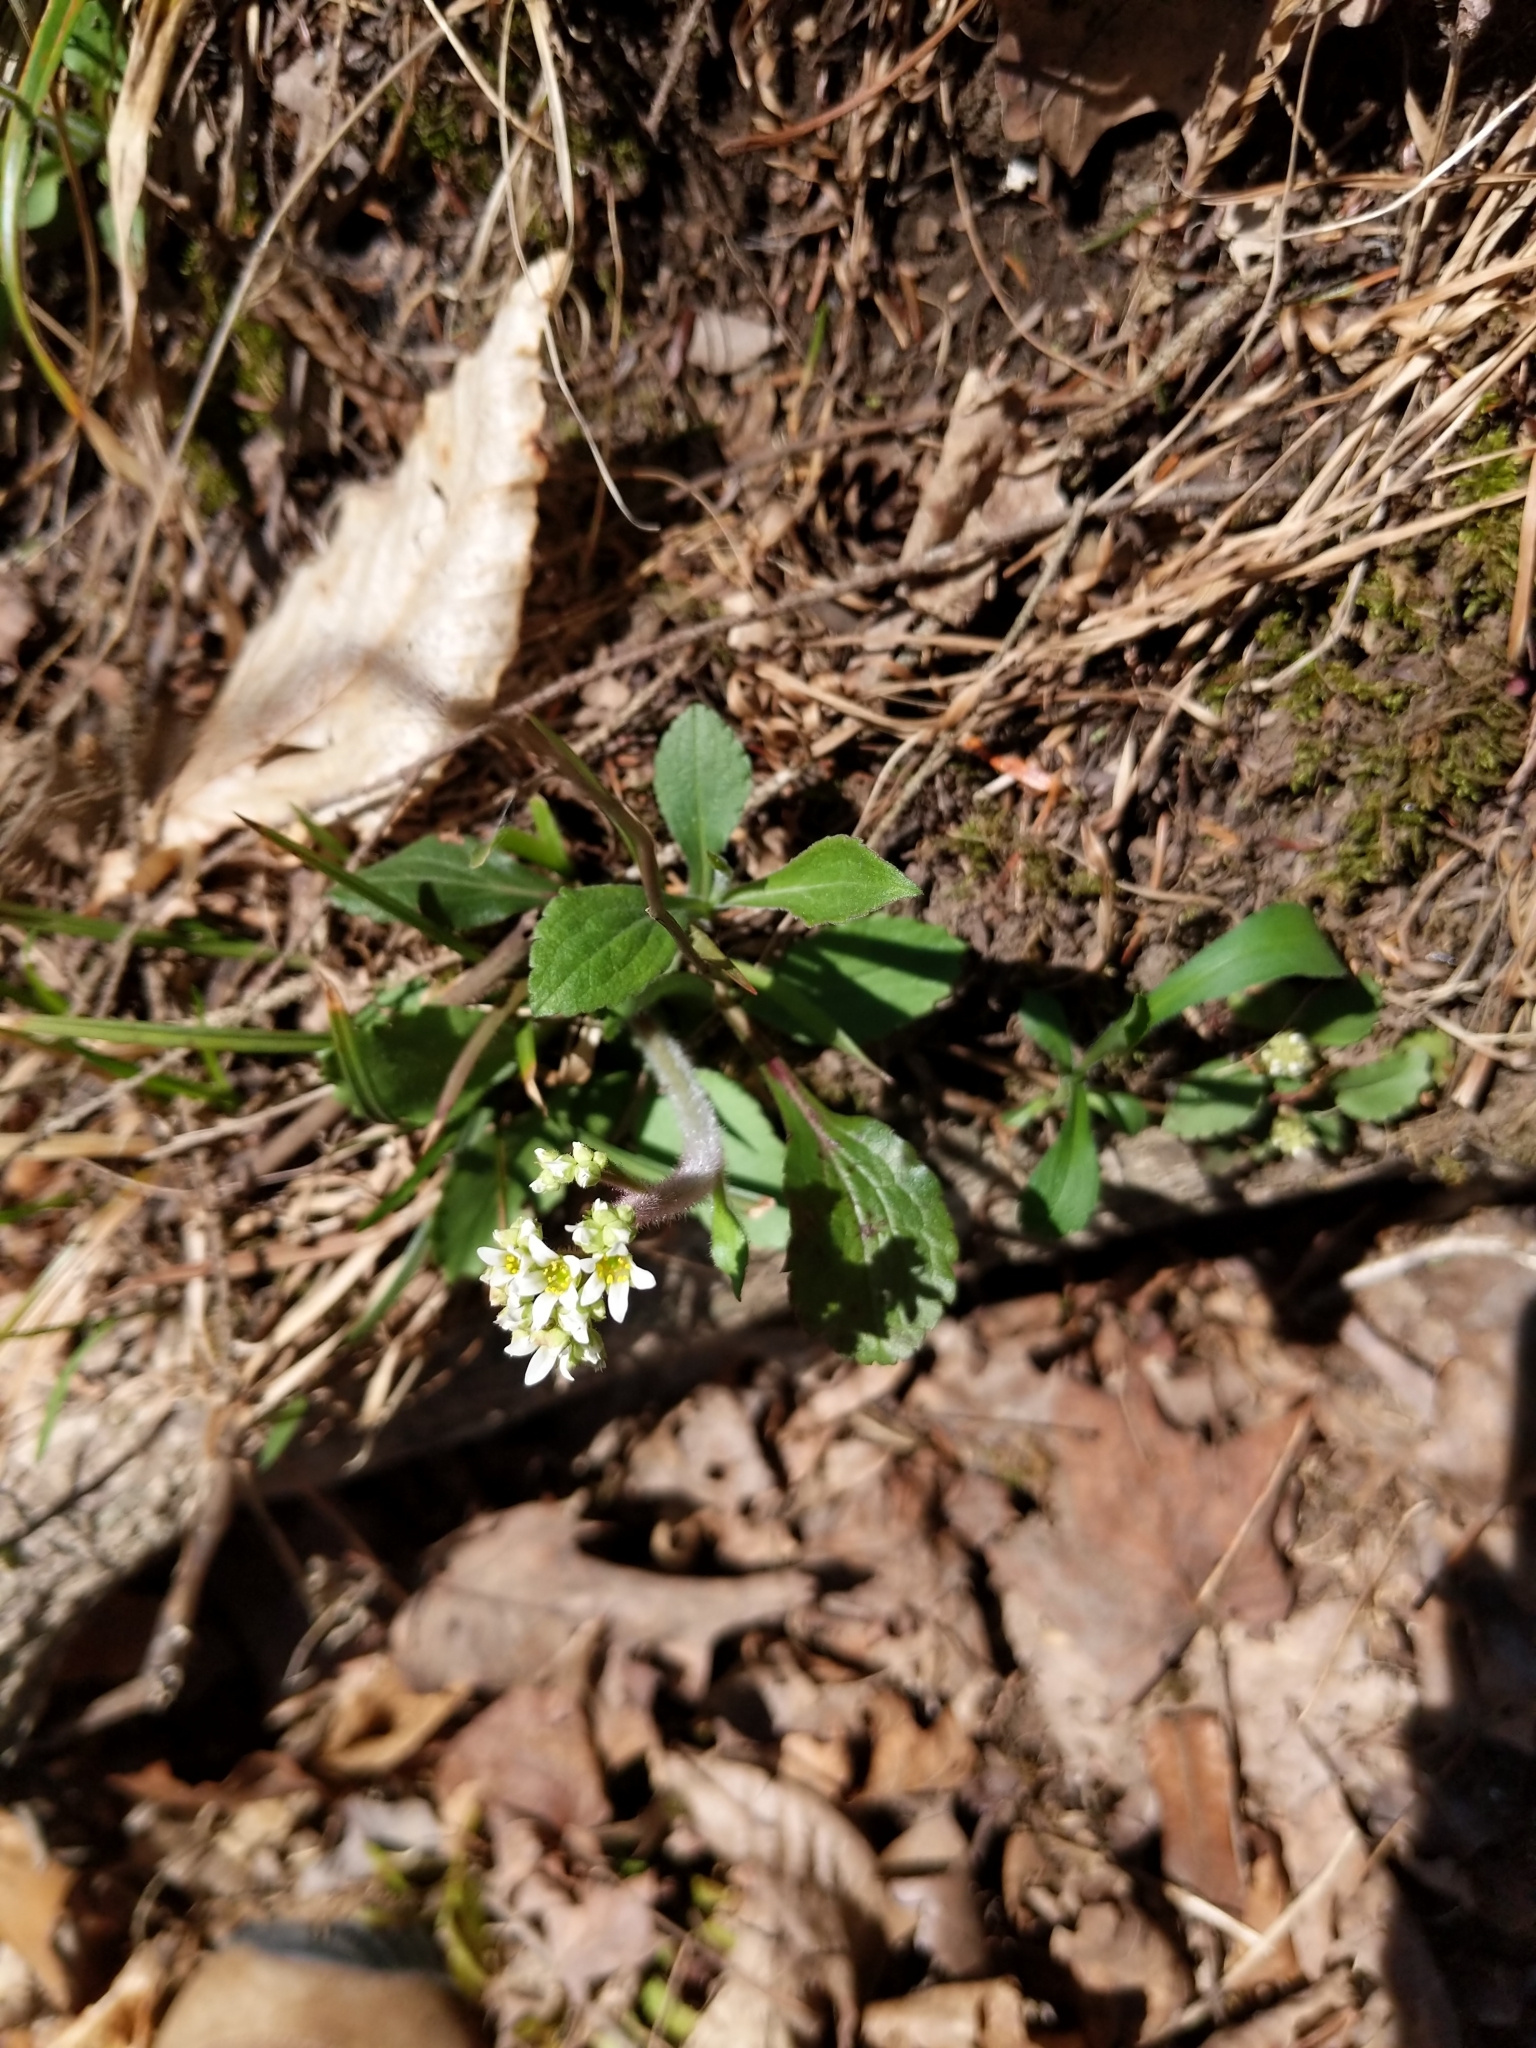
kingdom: Plantae
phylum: Tracheophyta
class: Magnoliopsida
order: Saxifragales
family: Saxifragaceae
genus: Micranthes
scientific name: Micranthes virginiensis
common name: Early saxifrage
